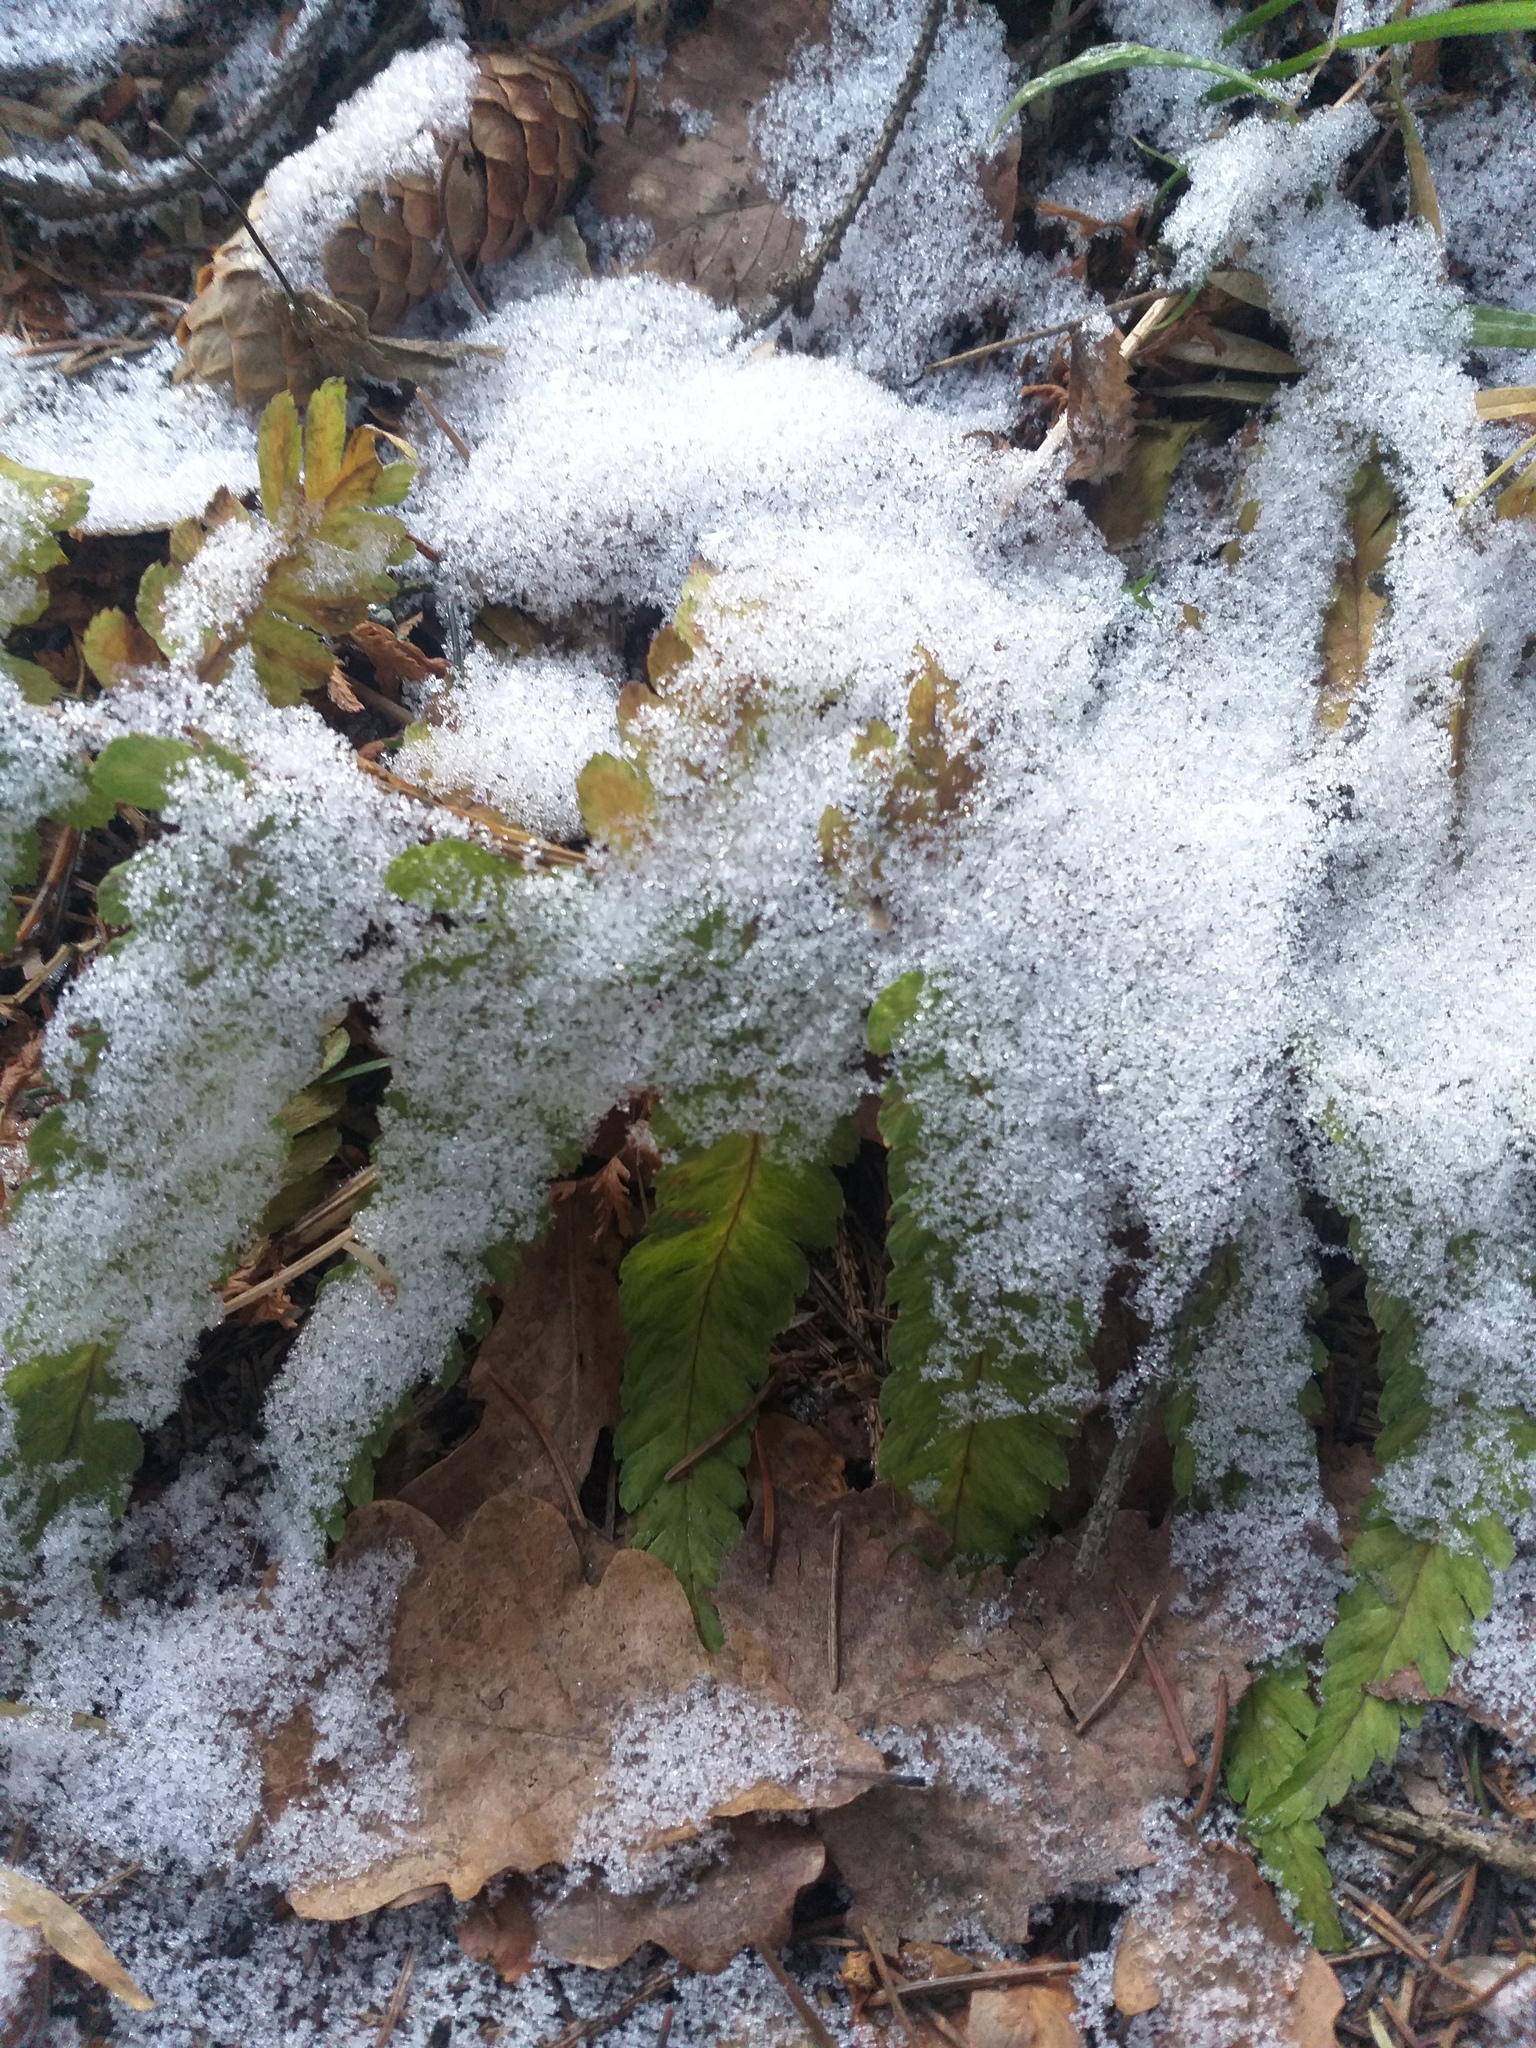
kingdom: Plantae
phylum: Tracheophyta
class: Polypodiopsida
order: Polypodiales
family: Dryopteridaceae
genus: Dryopteris
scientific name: Dryopteris filix-mas
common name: Male fern
